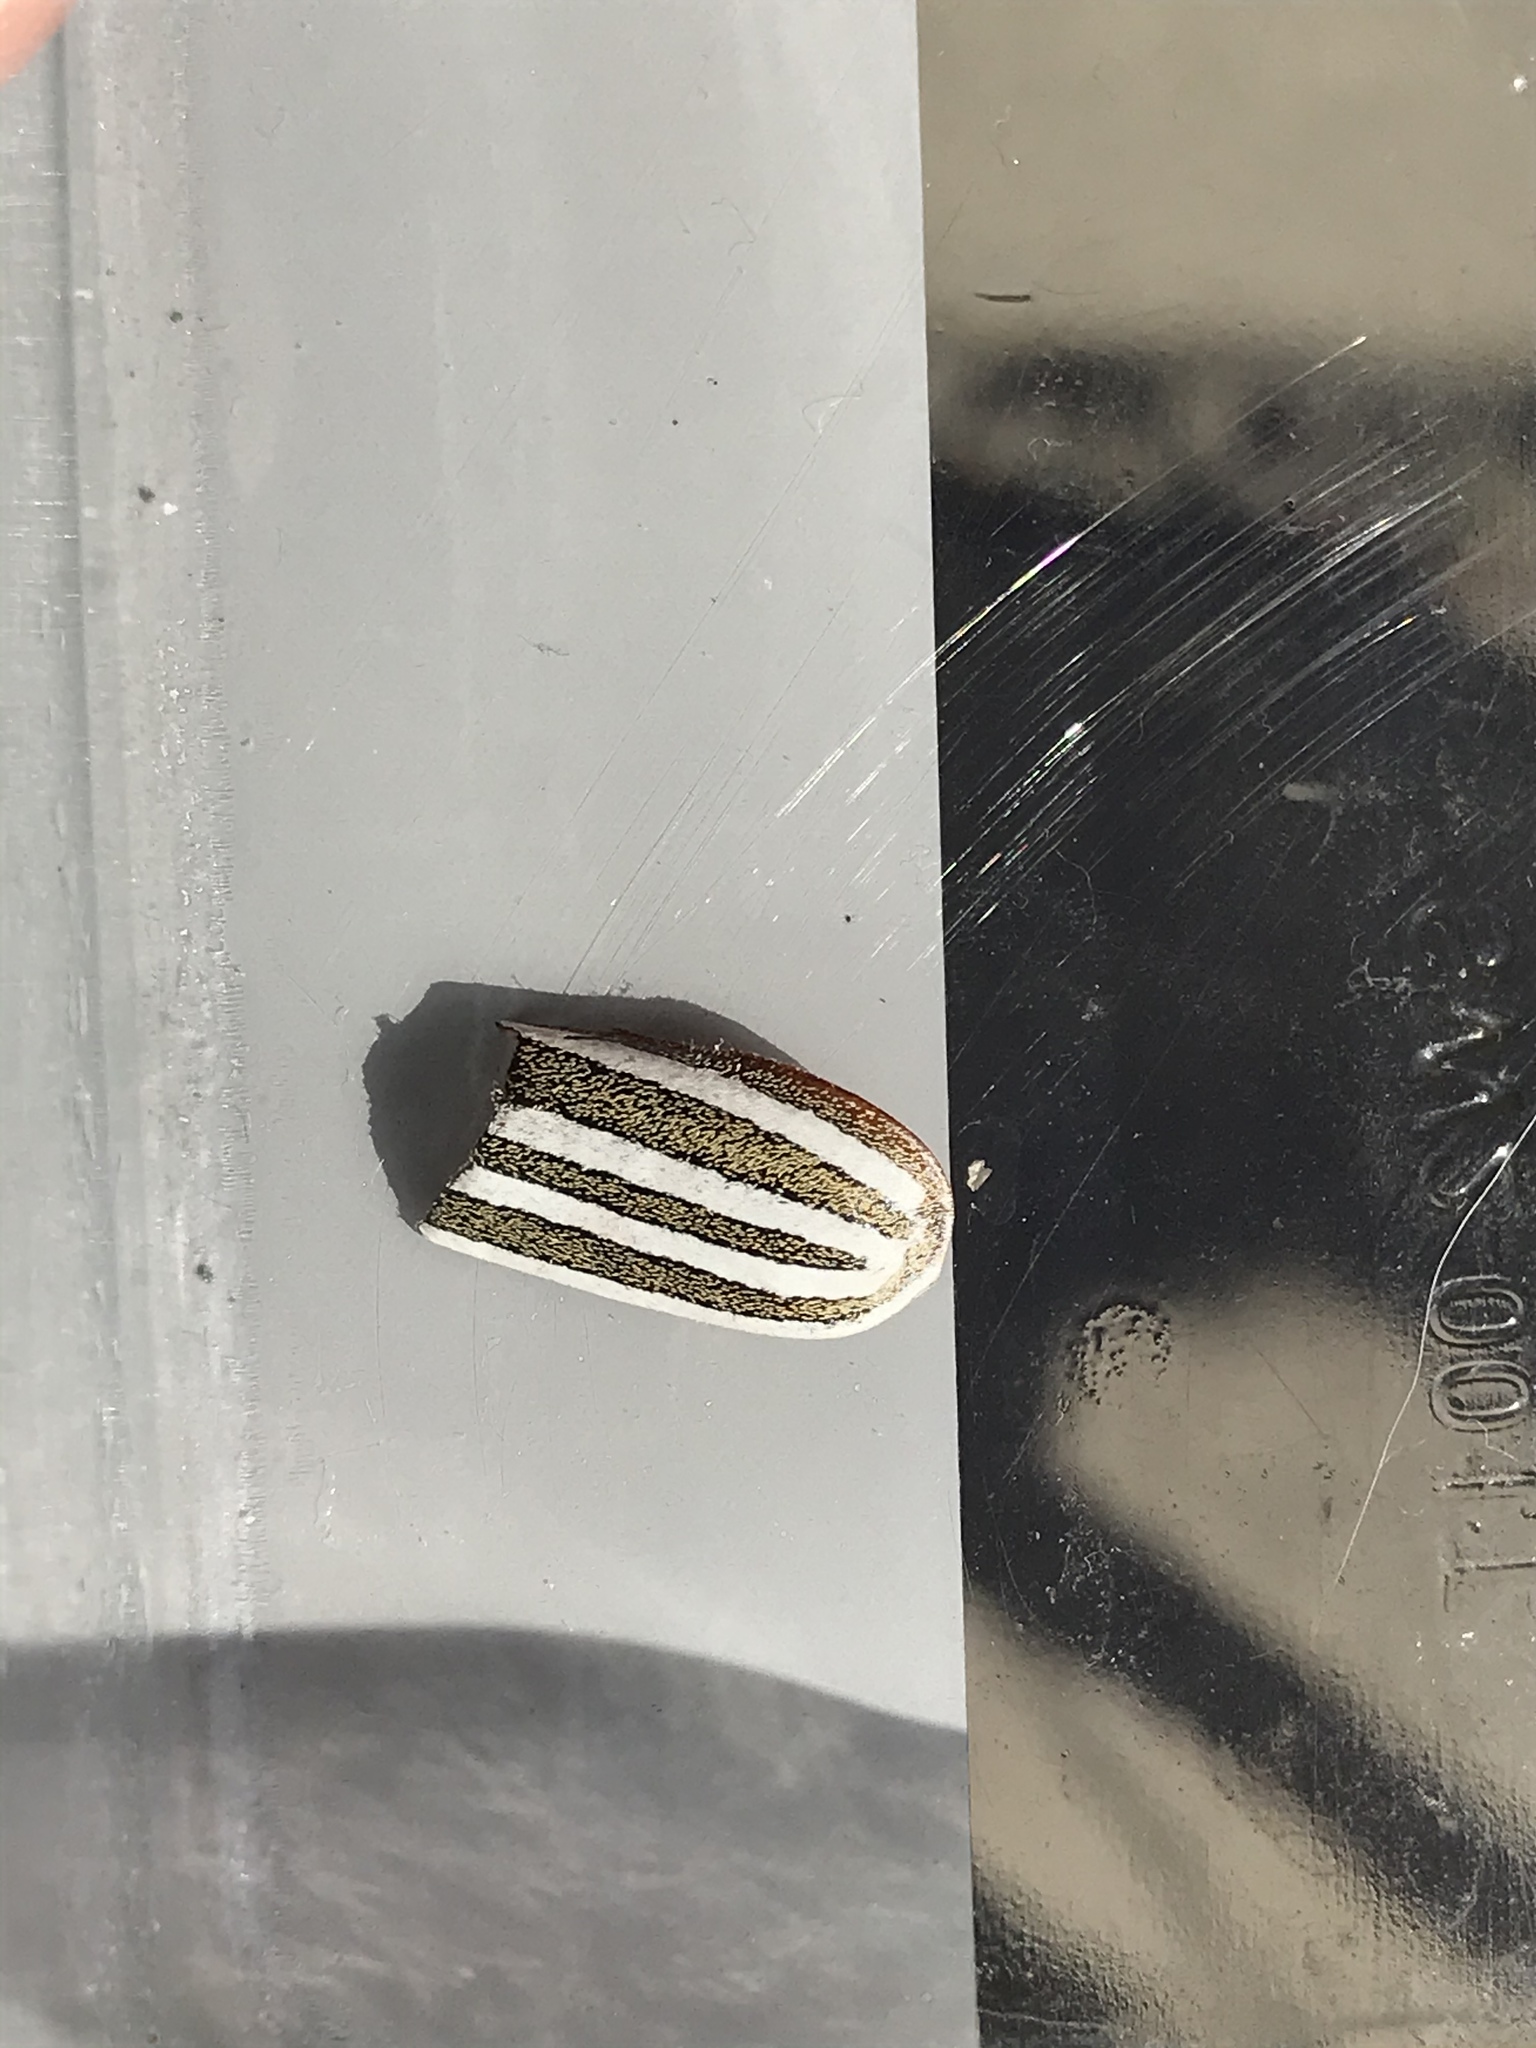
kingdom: Animalia
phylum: Arthropoda
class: Insecta
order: Coleoptera
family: Scarabaeidae
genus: Polyphylla
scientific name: Polyphylla decemlineata
